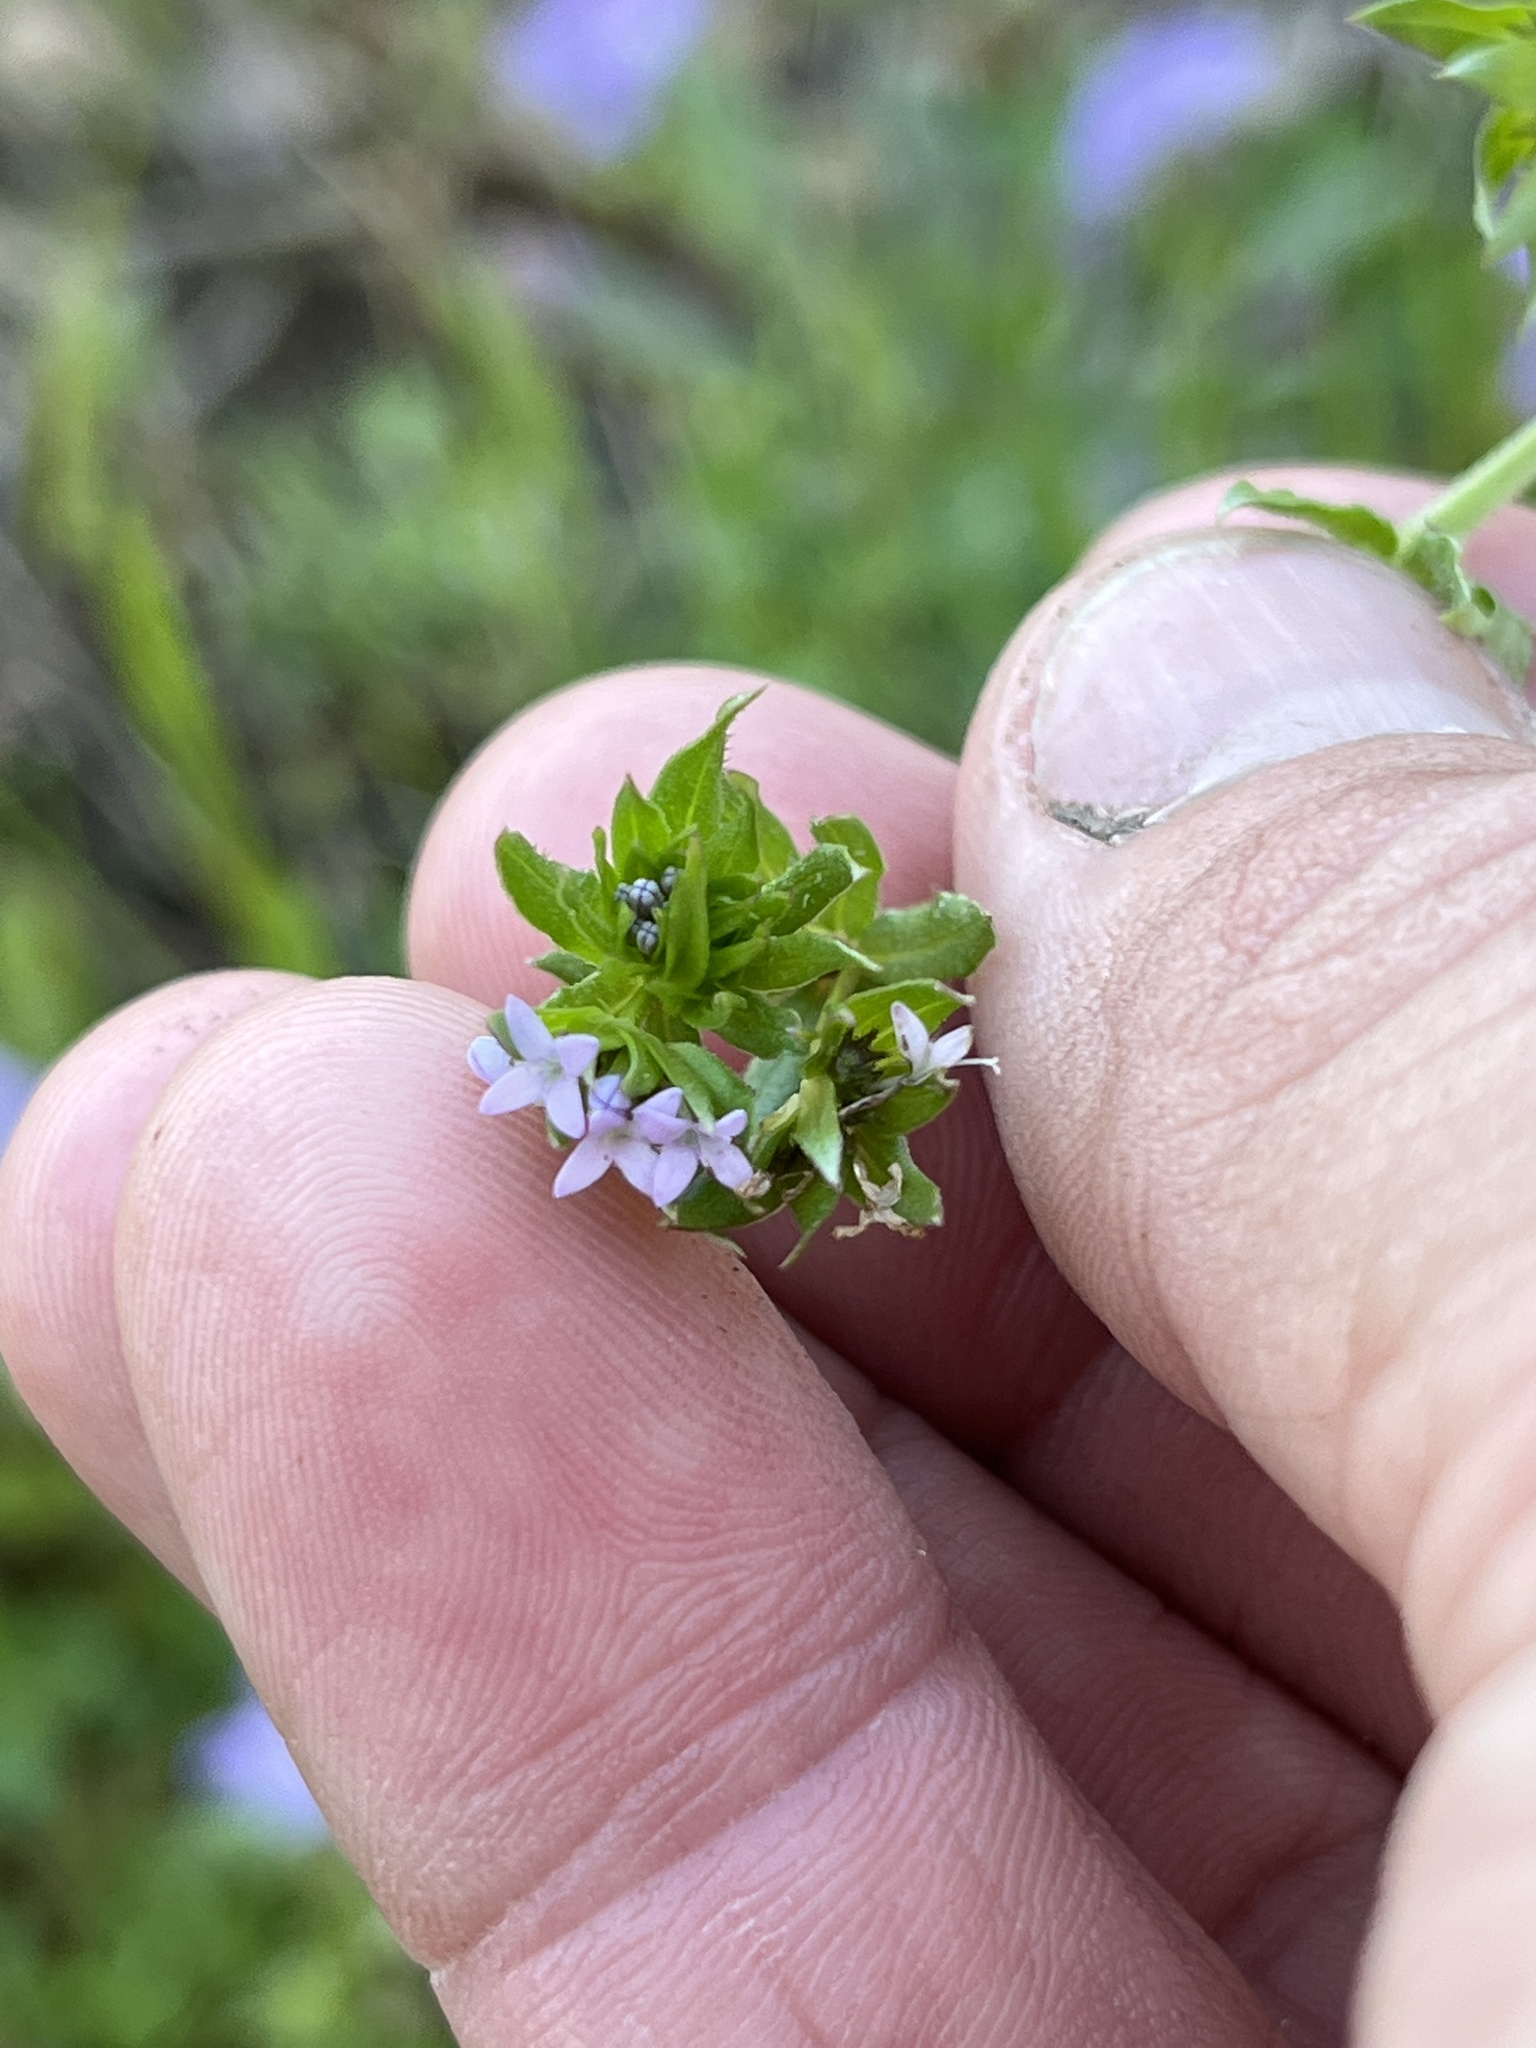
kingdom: Plantae
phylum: Tracheophyta
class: Magnoliopsida
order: Gentianales
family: Rubiaceae
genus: Sherardia
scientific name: Sherardia arvensis
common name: Field madder
